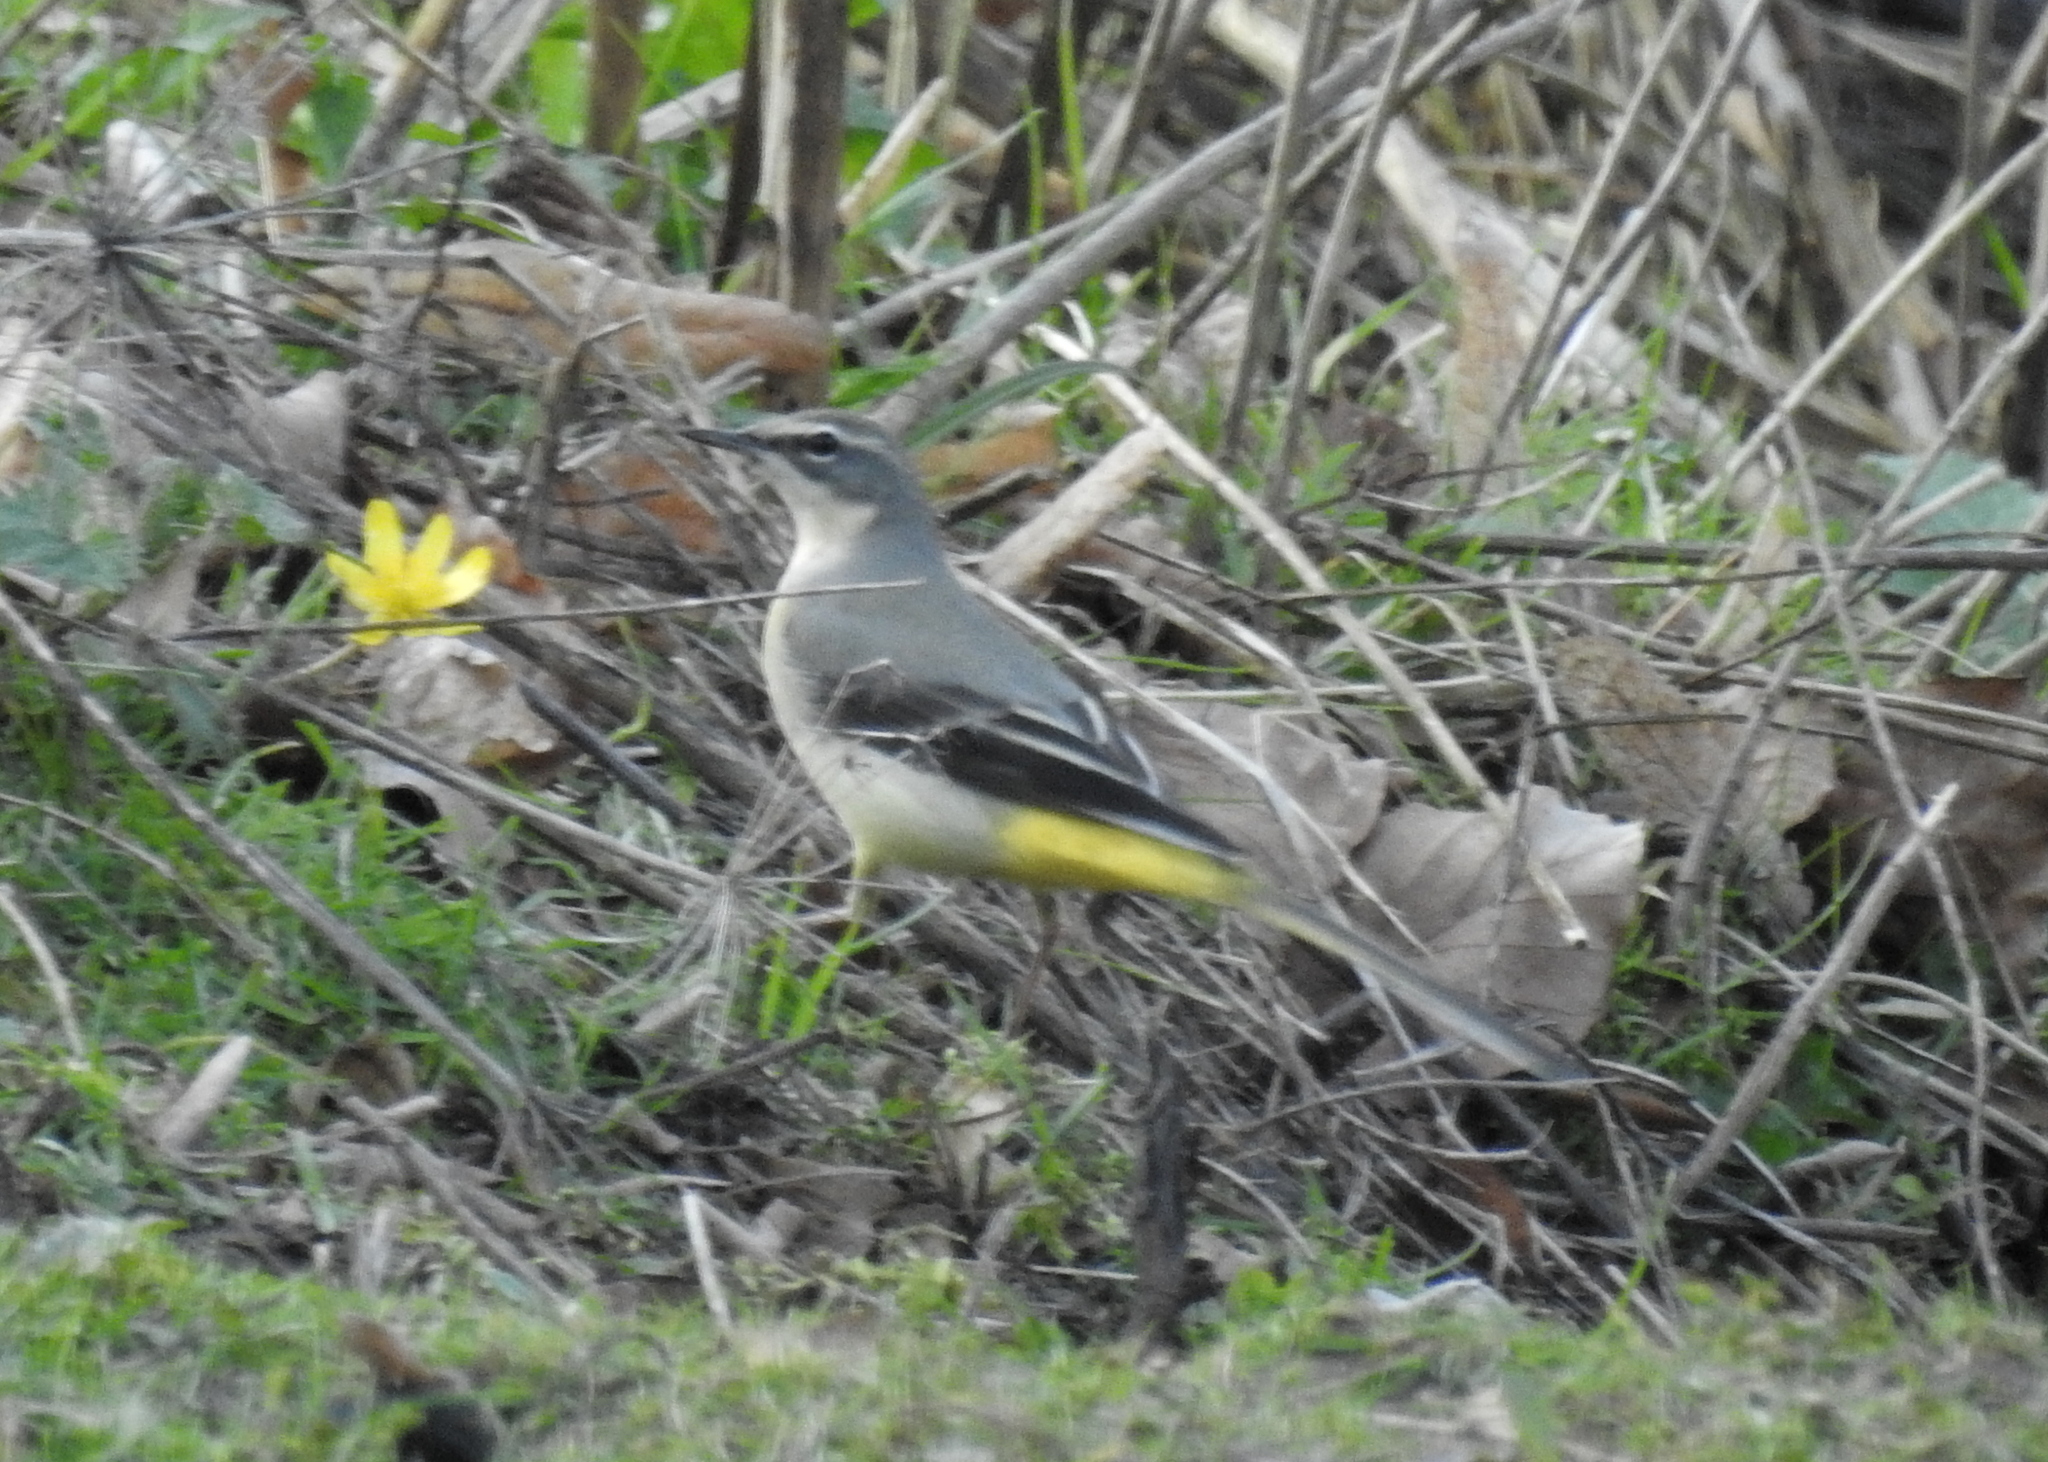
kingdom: Animalia
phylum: Chordata
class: Aves
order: Passeriformes
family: Motacillidae
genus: Motacilla
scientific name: Motacilla cinerea
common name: Grey wagtail
